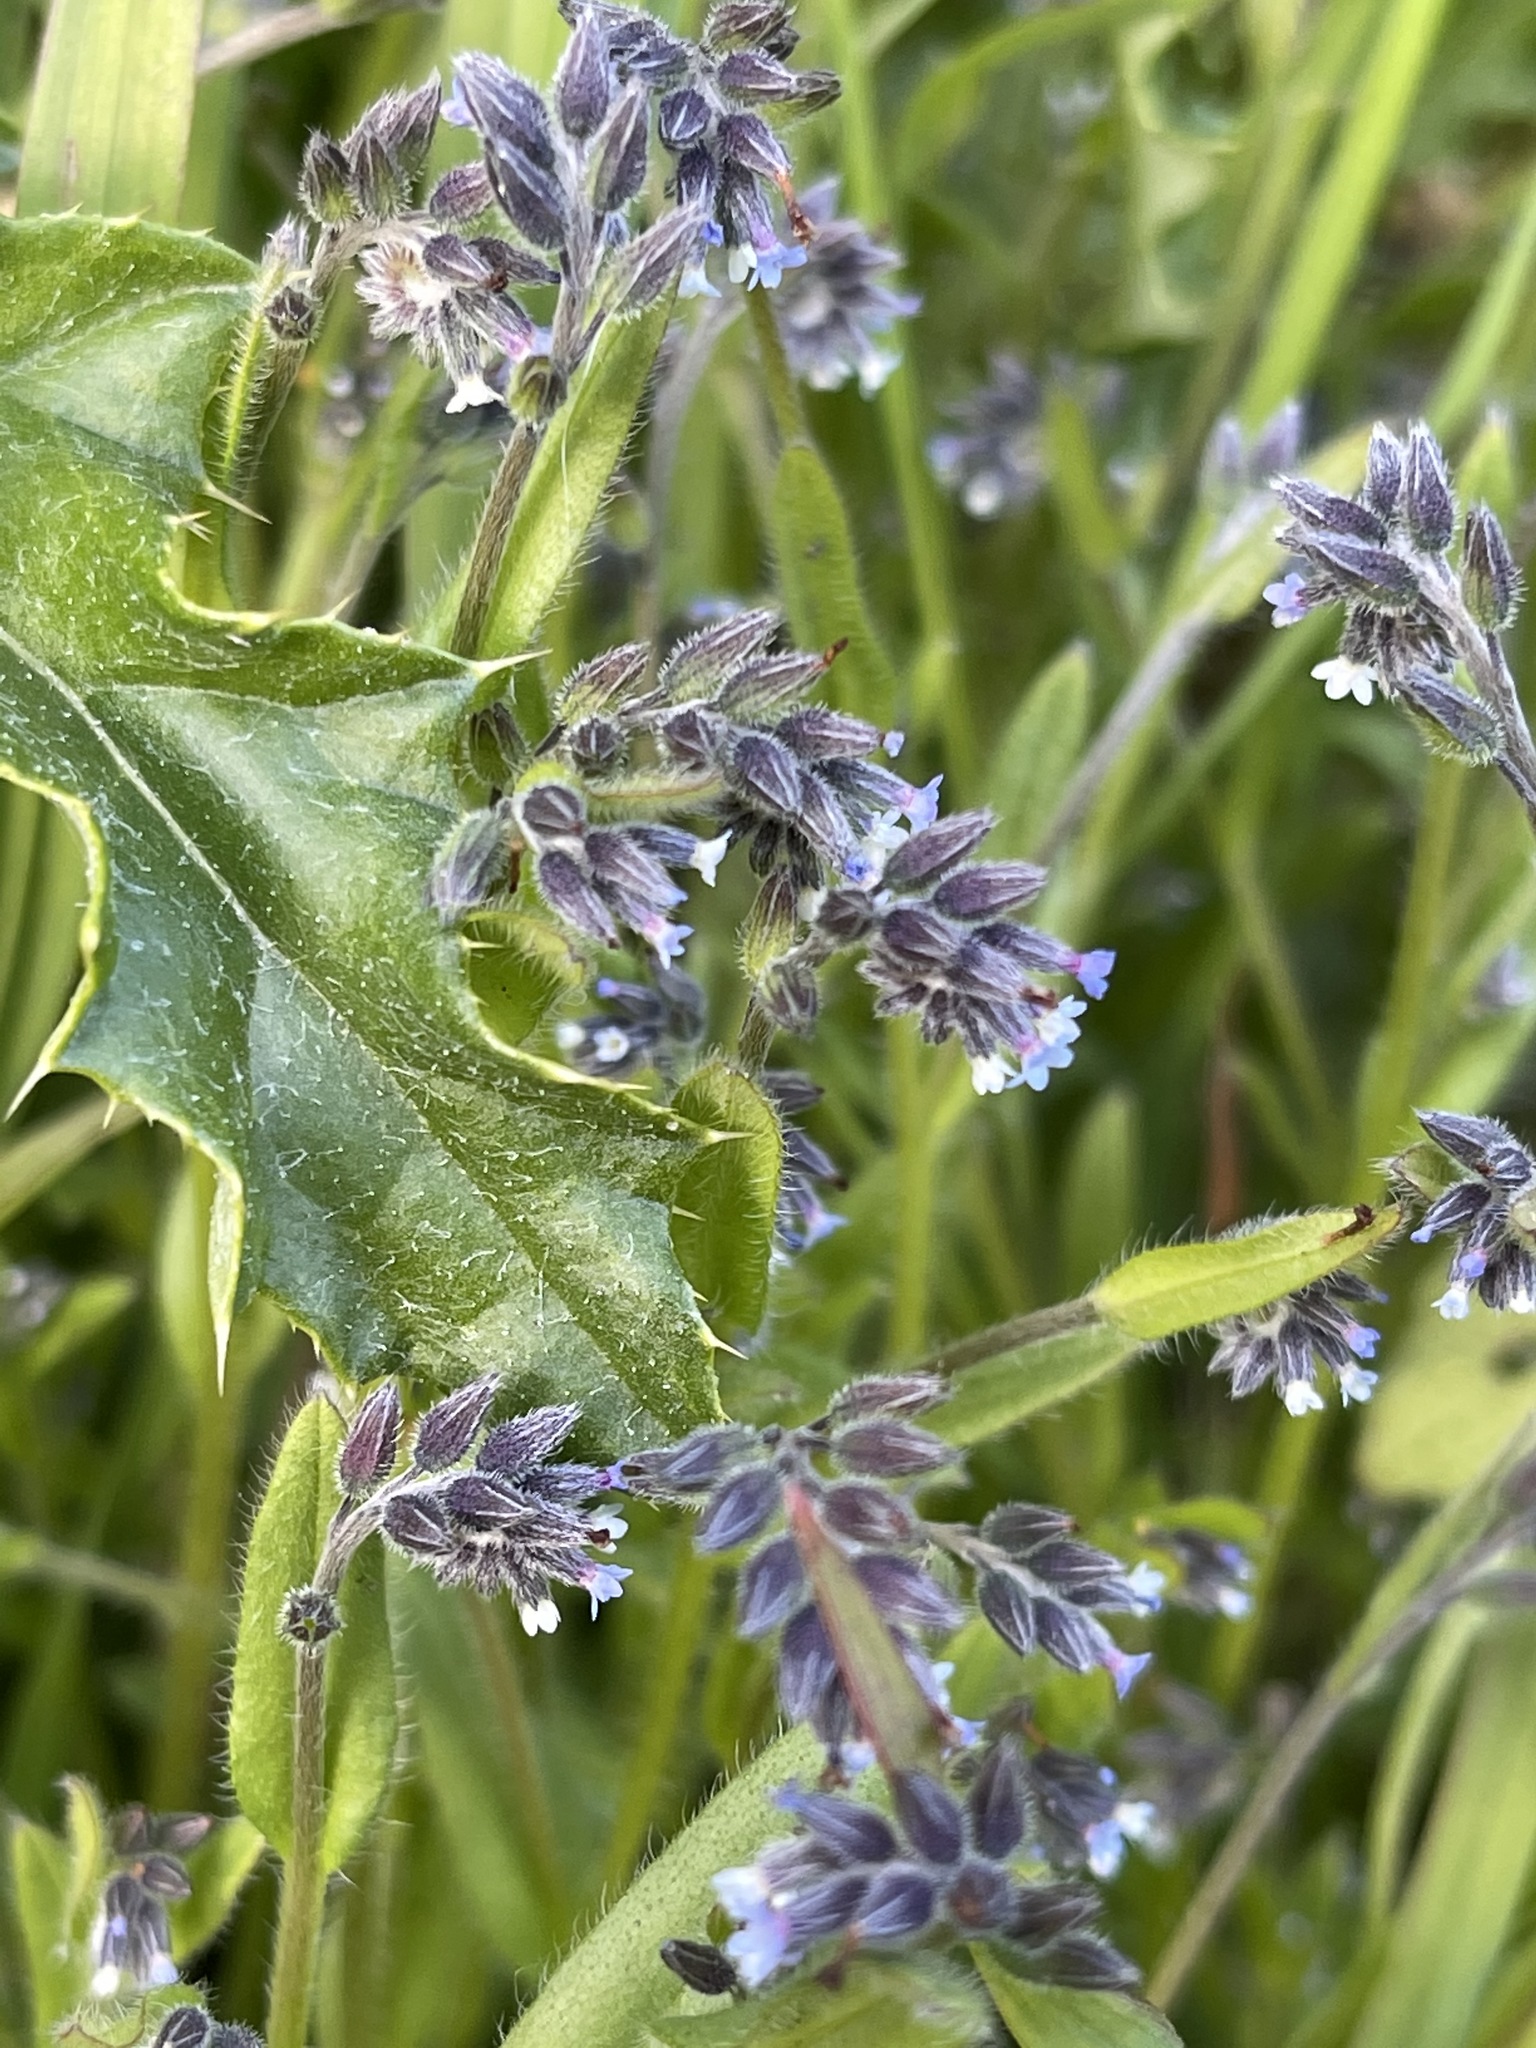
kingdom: Plantae
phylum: Tracheophyta
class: Magnoliopsida
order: Boraginales
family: Boraginaceae
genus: Myosotis
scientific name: Myosotis discolor
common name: Changing forget-me-not
